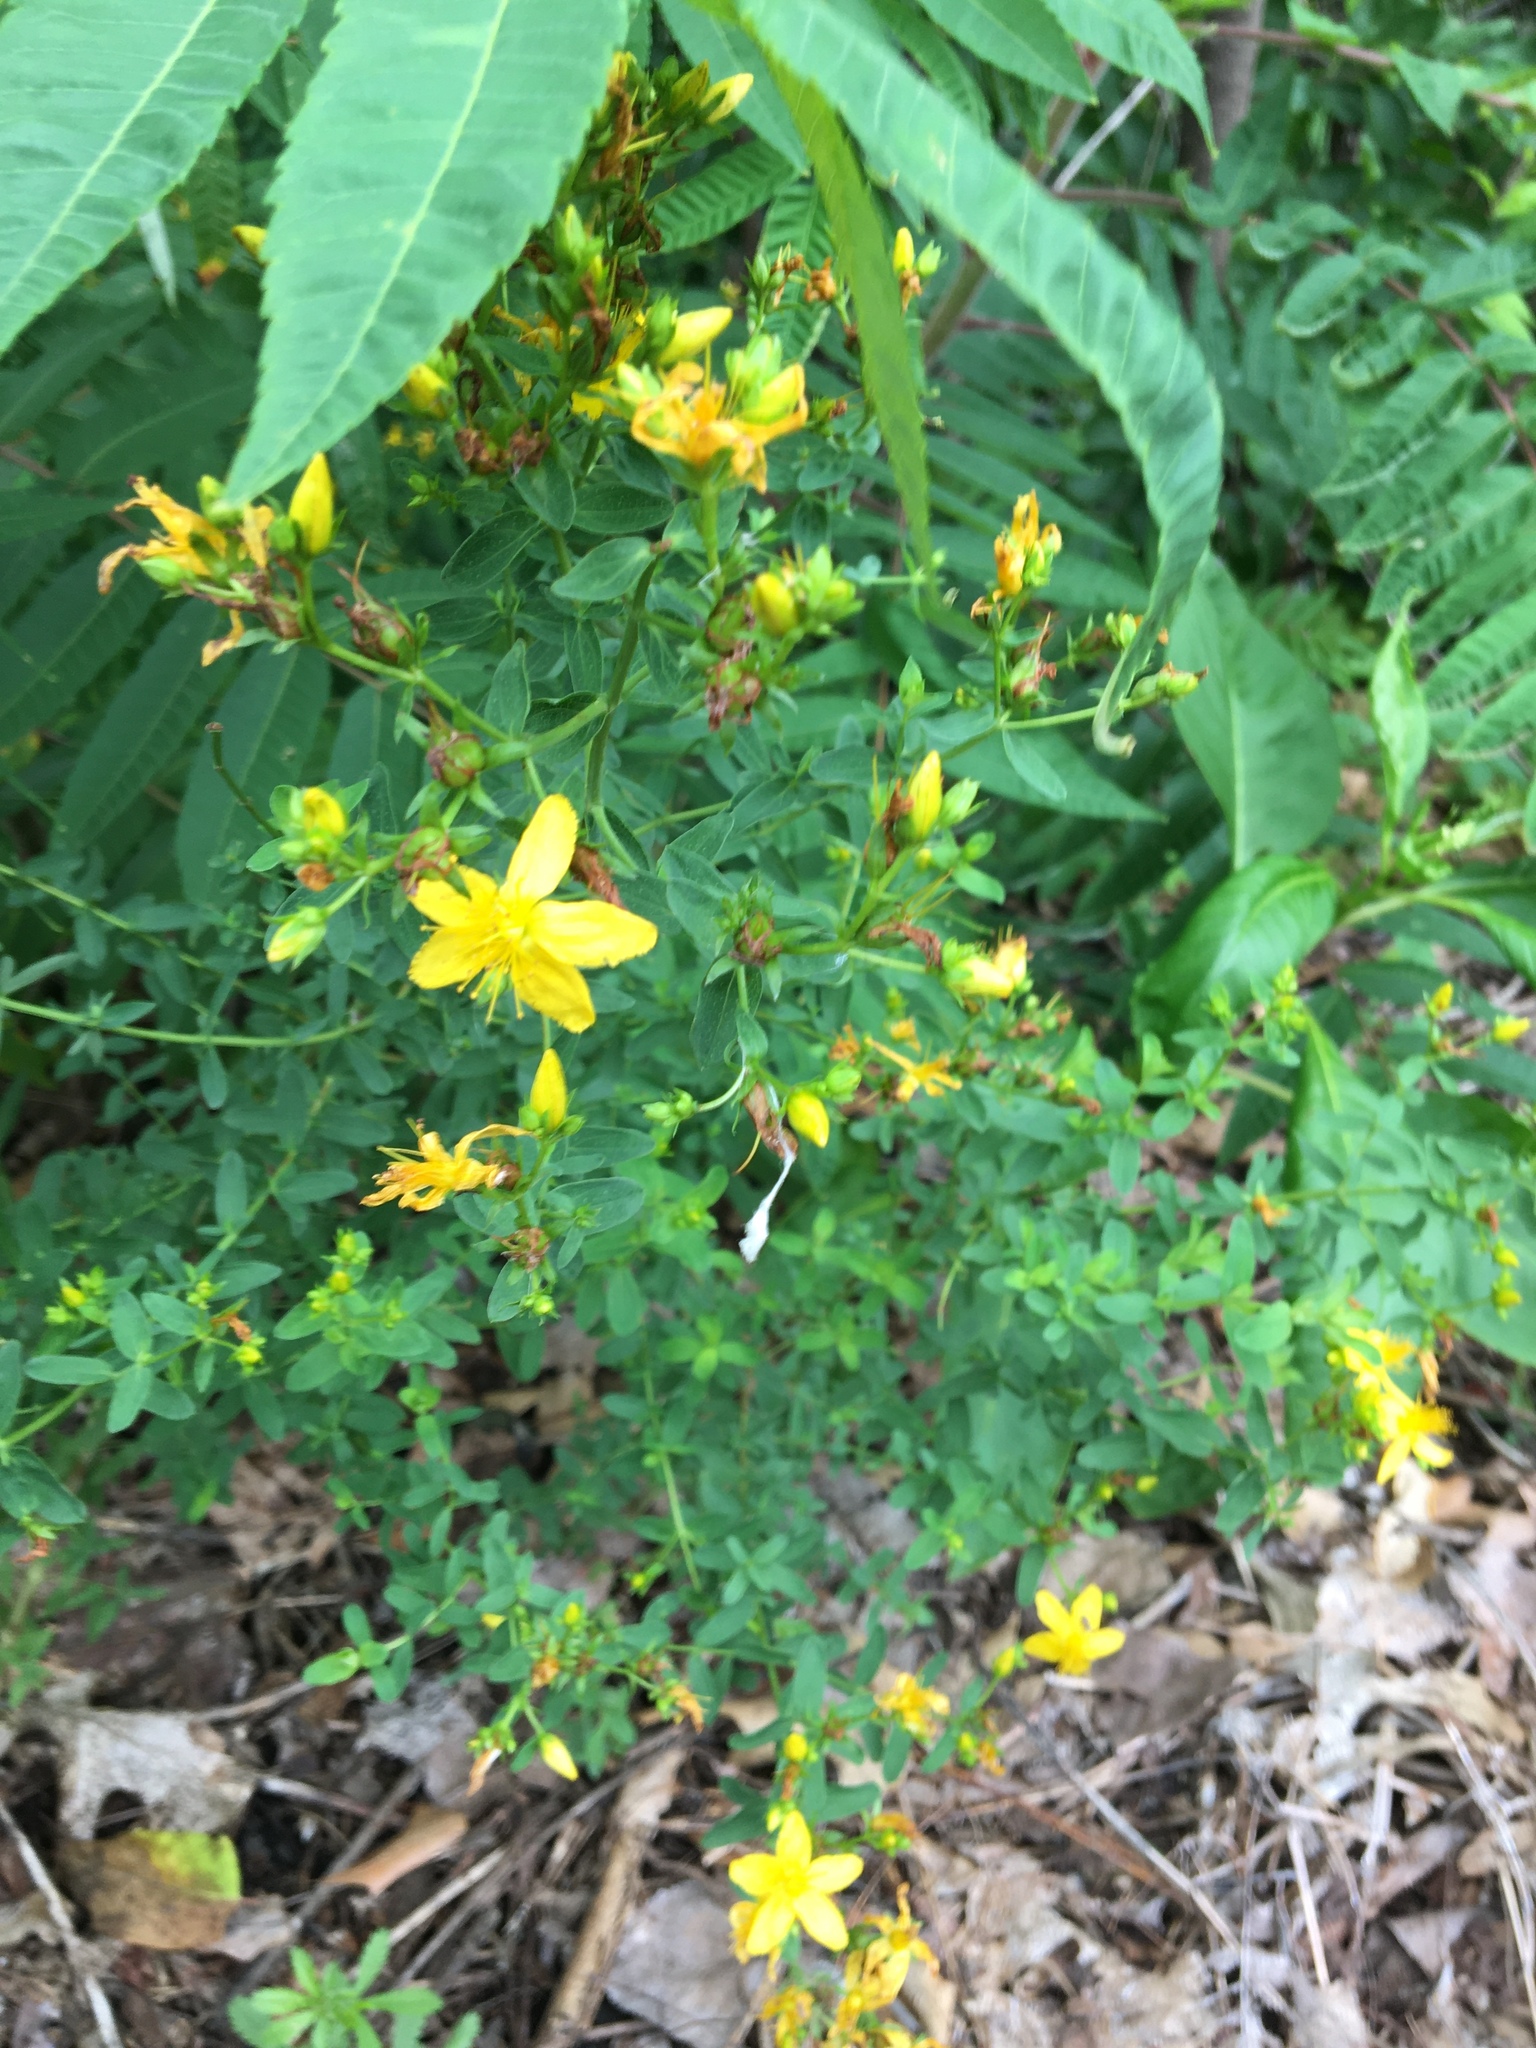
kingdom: Plantae
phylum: Tracheophyta
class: Magnoliopsida
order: Malpighiales
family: Hypericaceae
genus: Hypericum
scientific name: Hypericum perforatum
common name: Common st. johnswort
